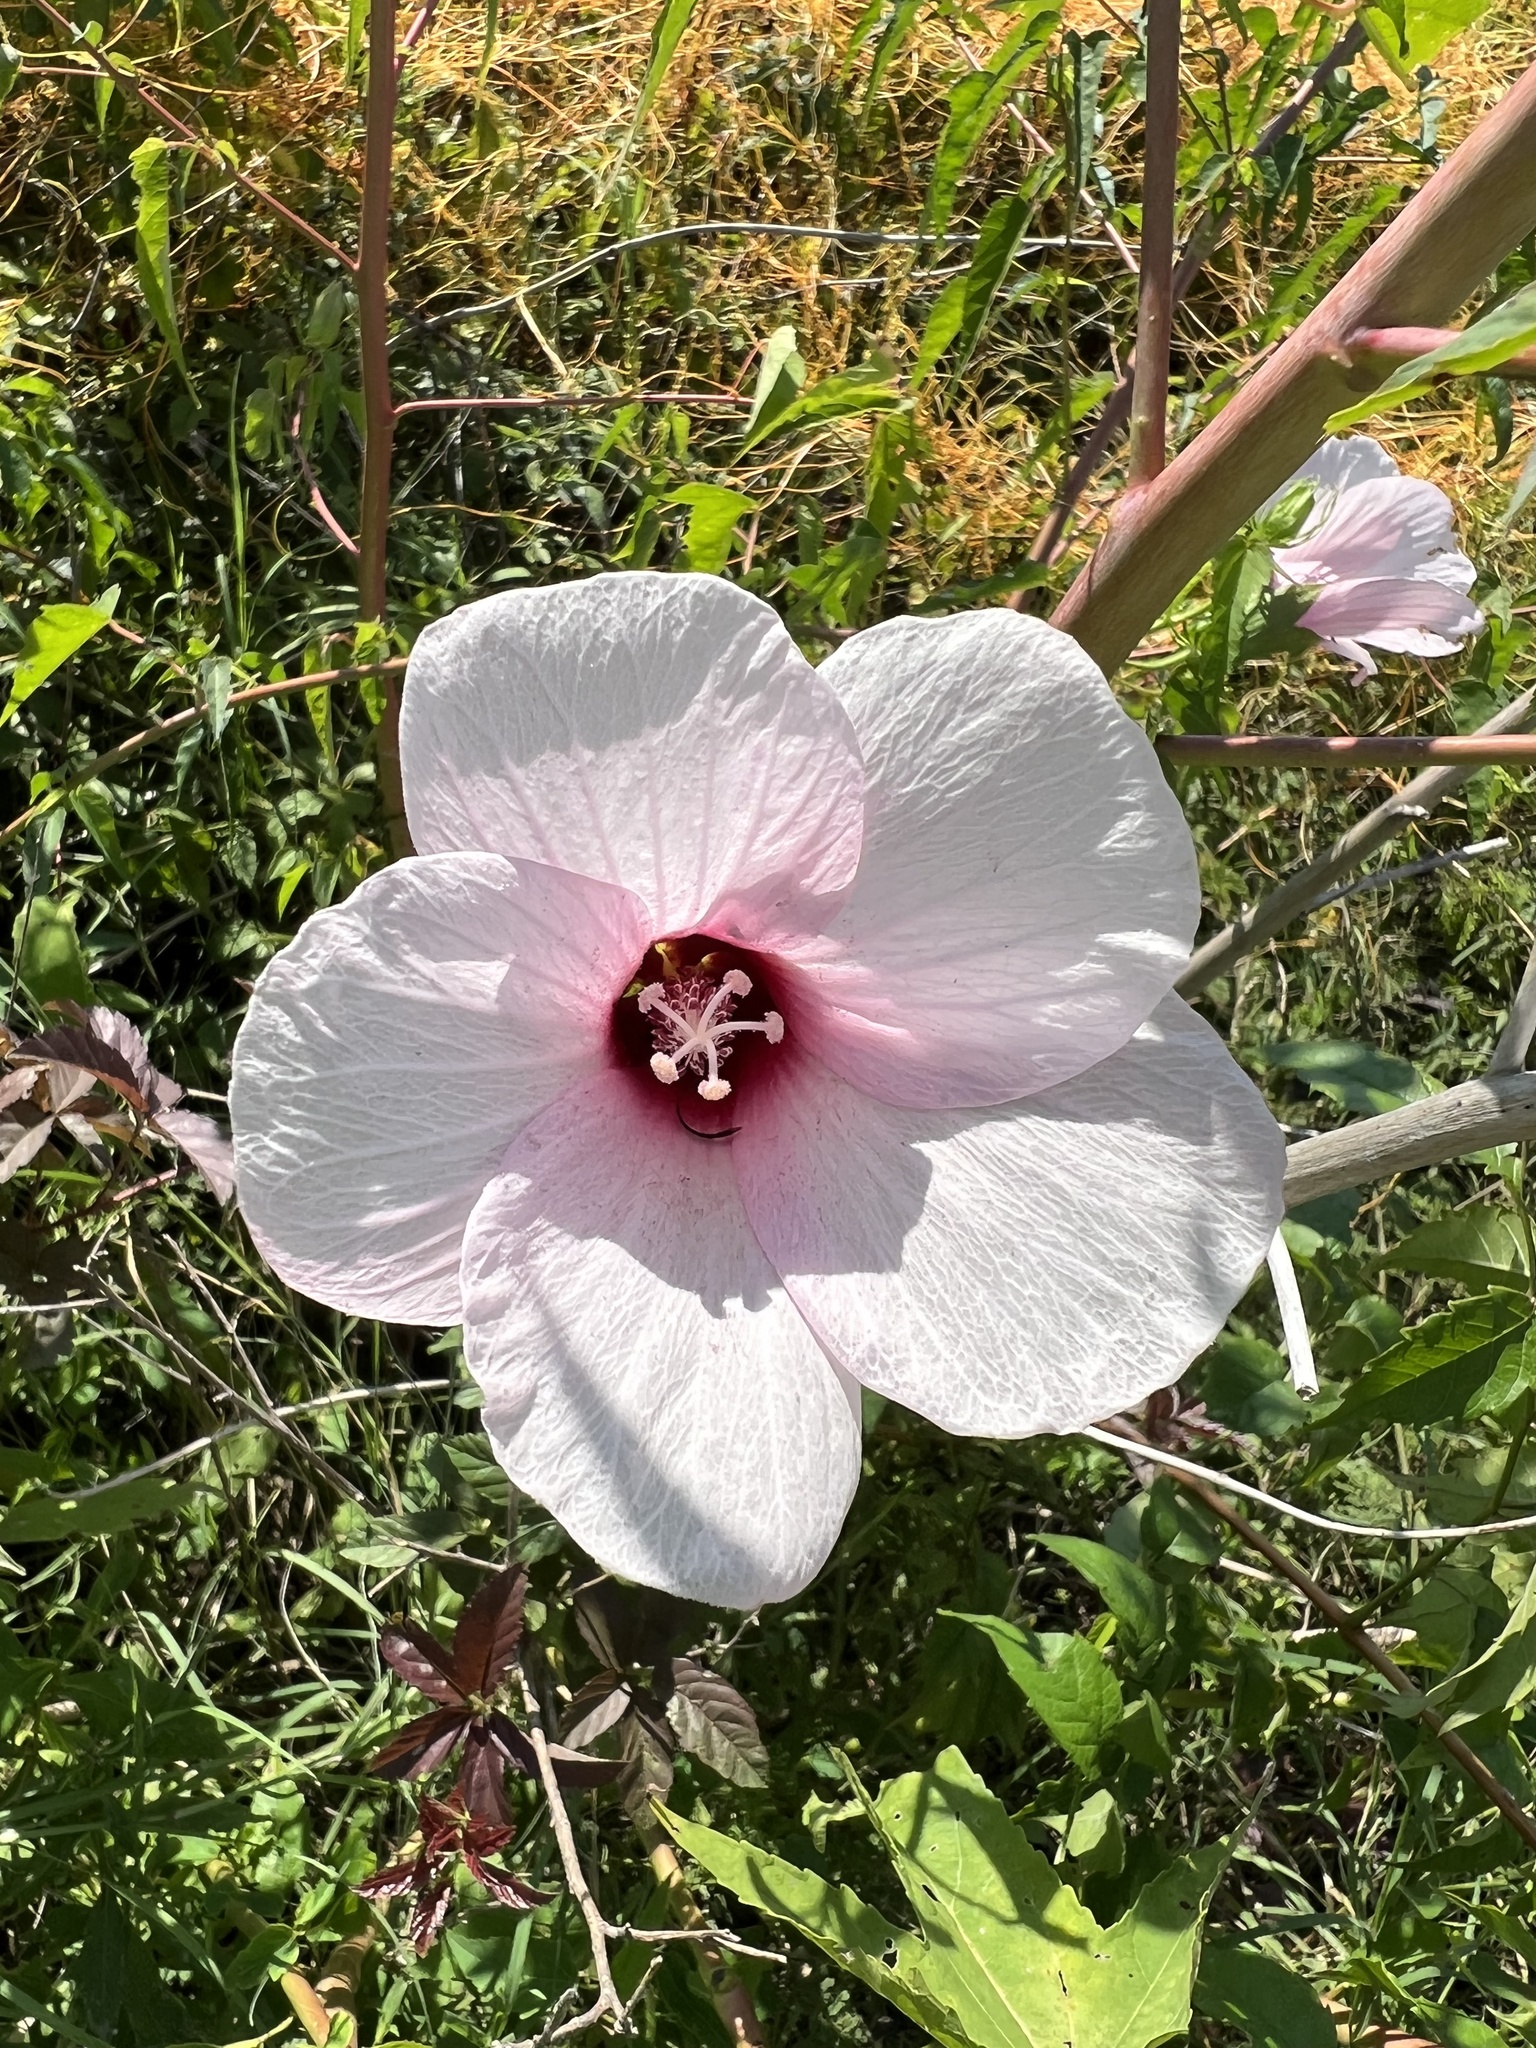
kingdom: Plantae
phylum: Tracheophyta
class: Magnoliopsida
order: Malvales
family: Malvaceae
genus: Hibiscus
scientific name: Hibiscus laevis
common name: Scarlet rose-mallow
